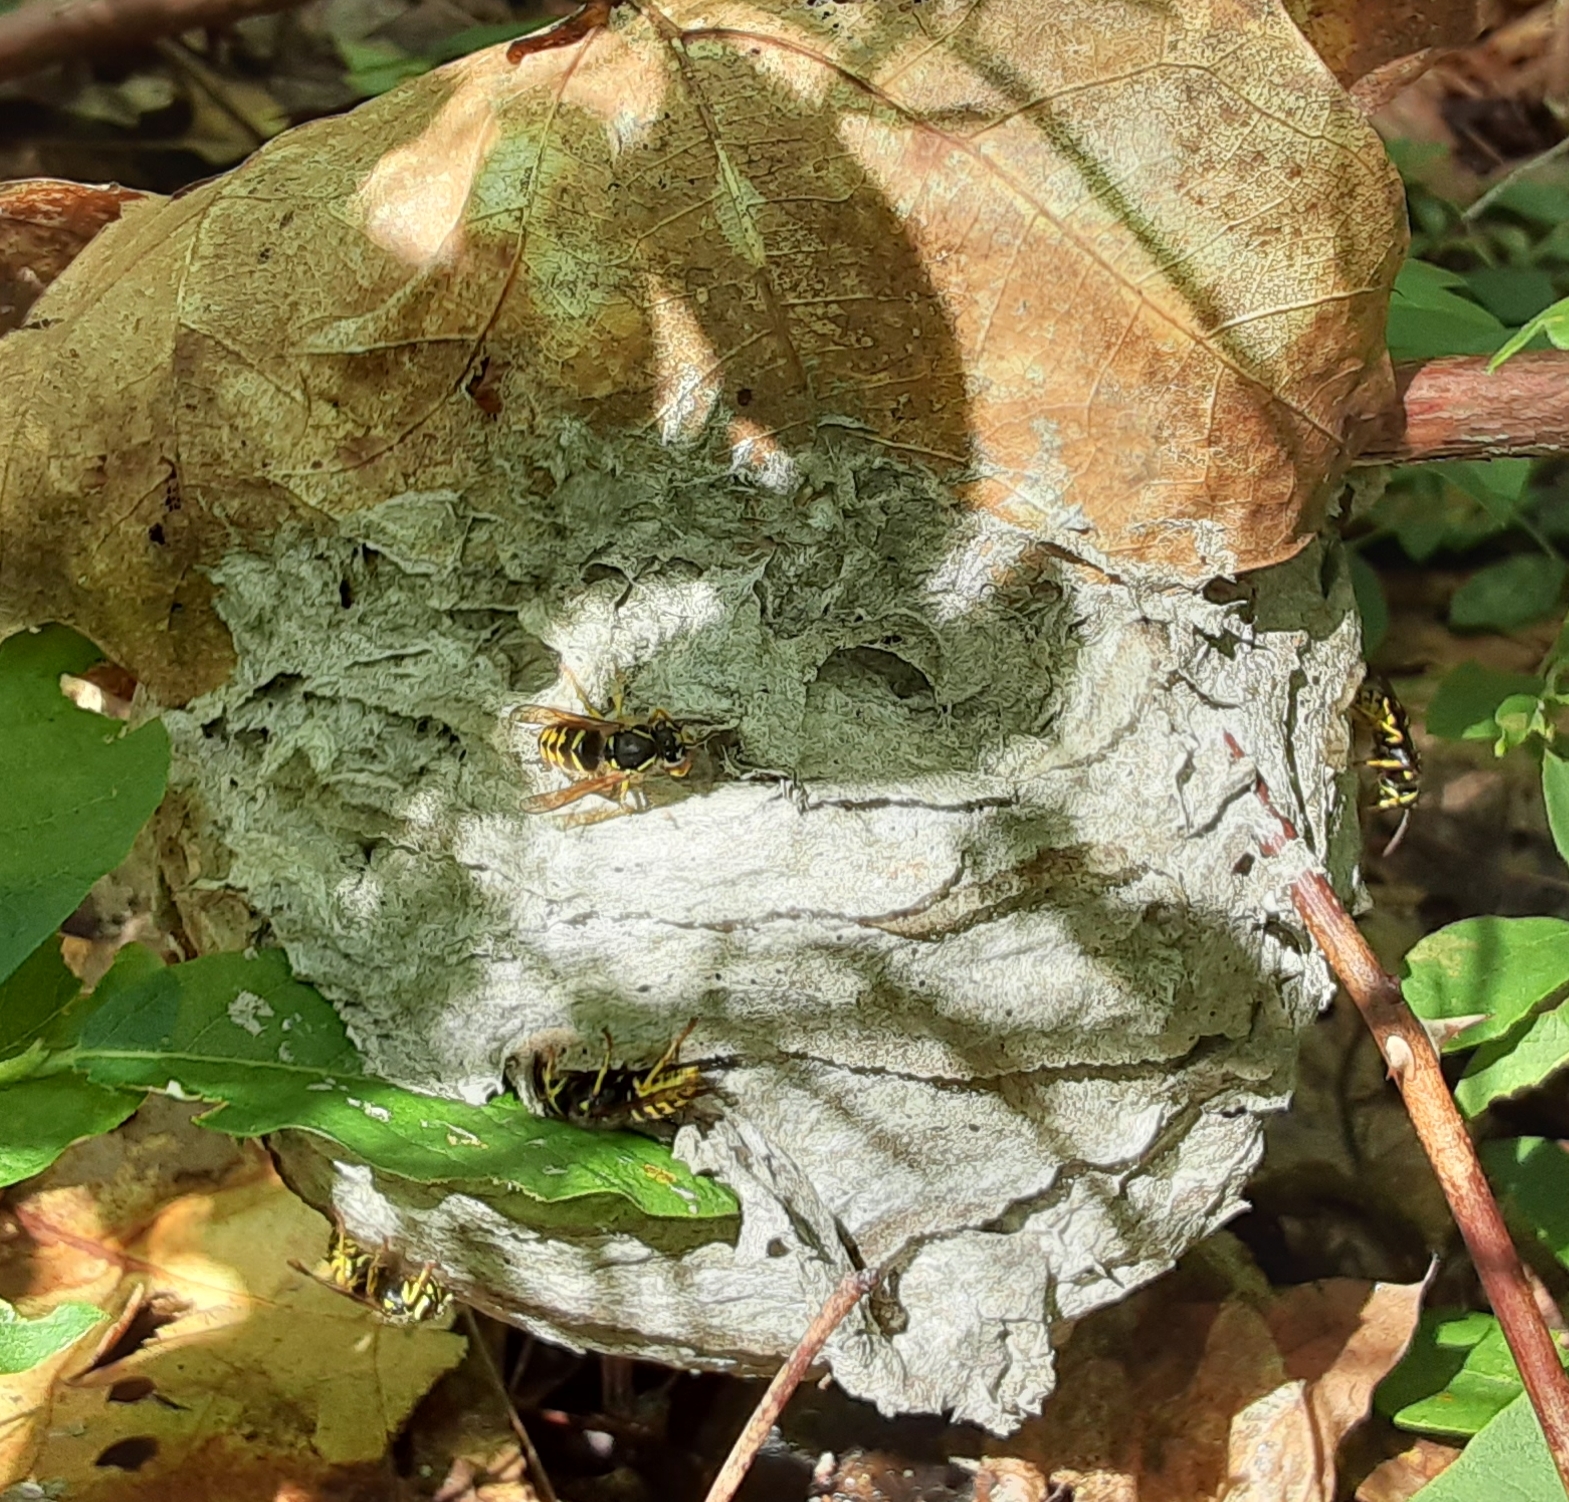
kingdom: Animalia
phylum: Arthropoda
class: Insecta
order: Hymenoptera
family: Vespidae
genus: Dolichovespula
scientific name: Dolichovespula arenaria
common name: Aerial yellowjacket
